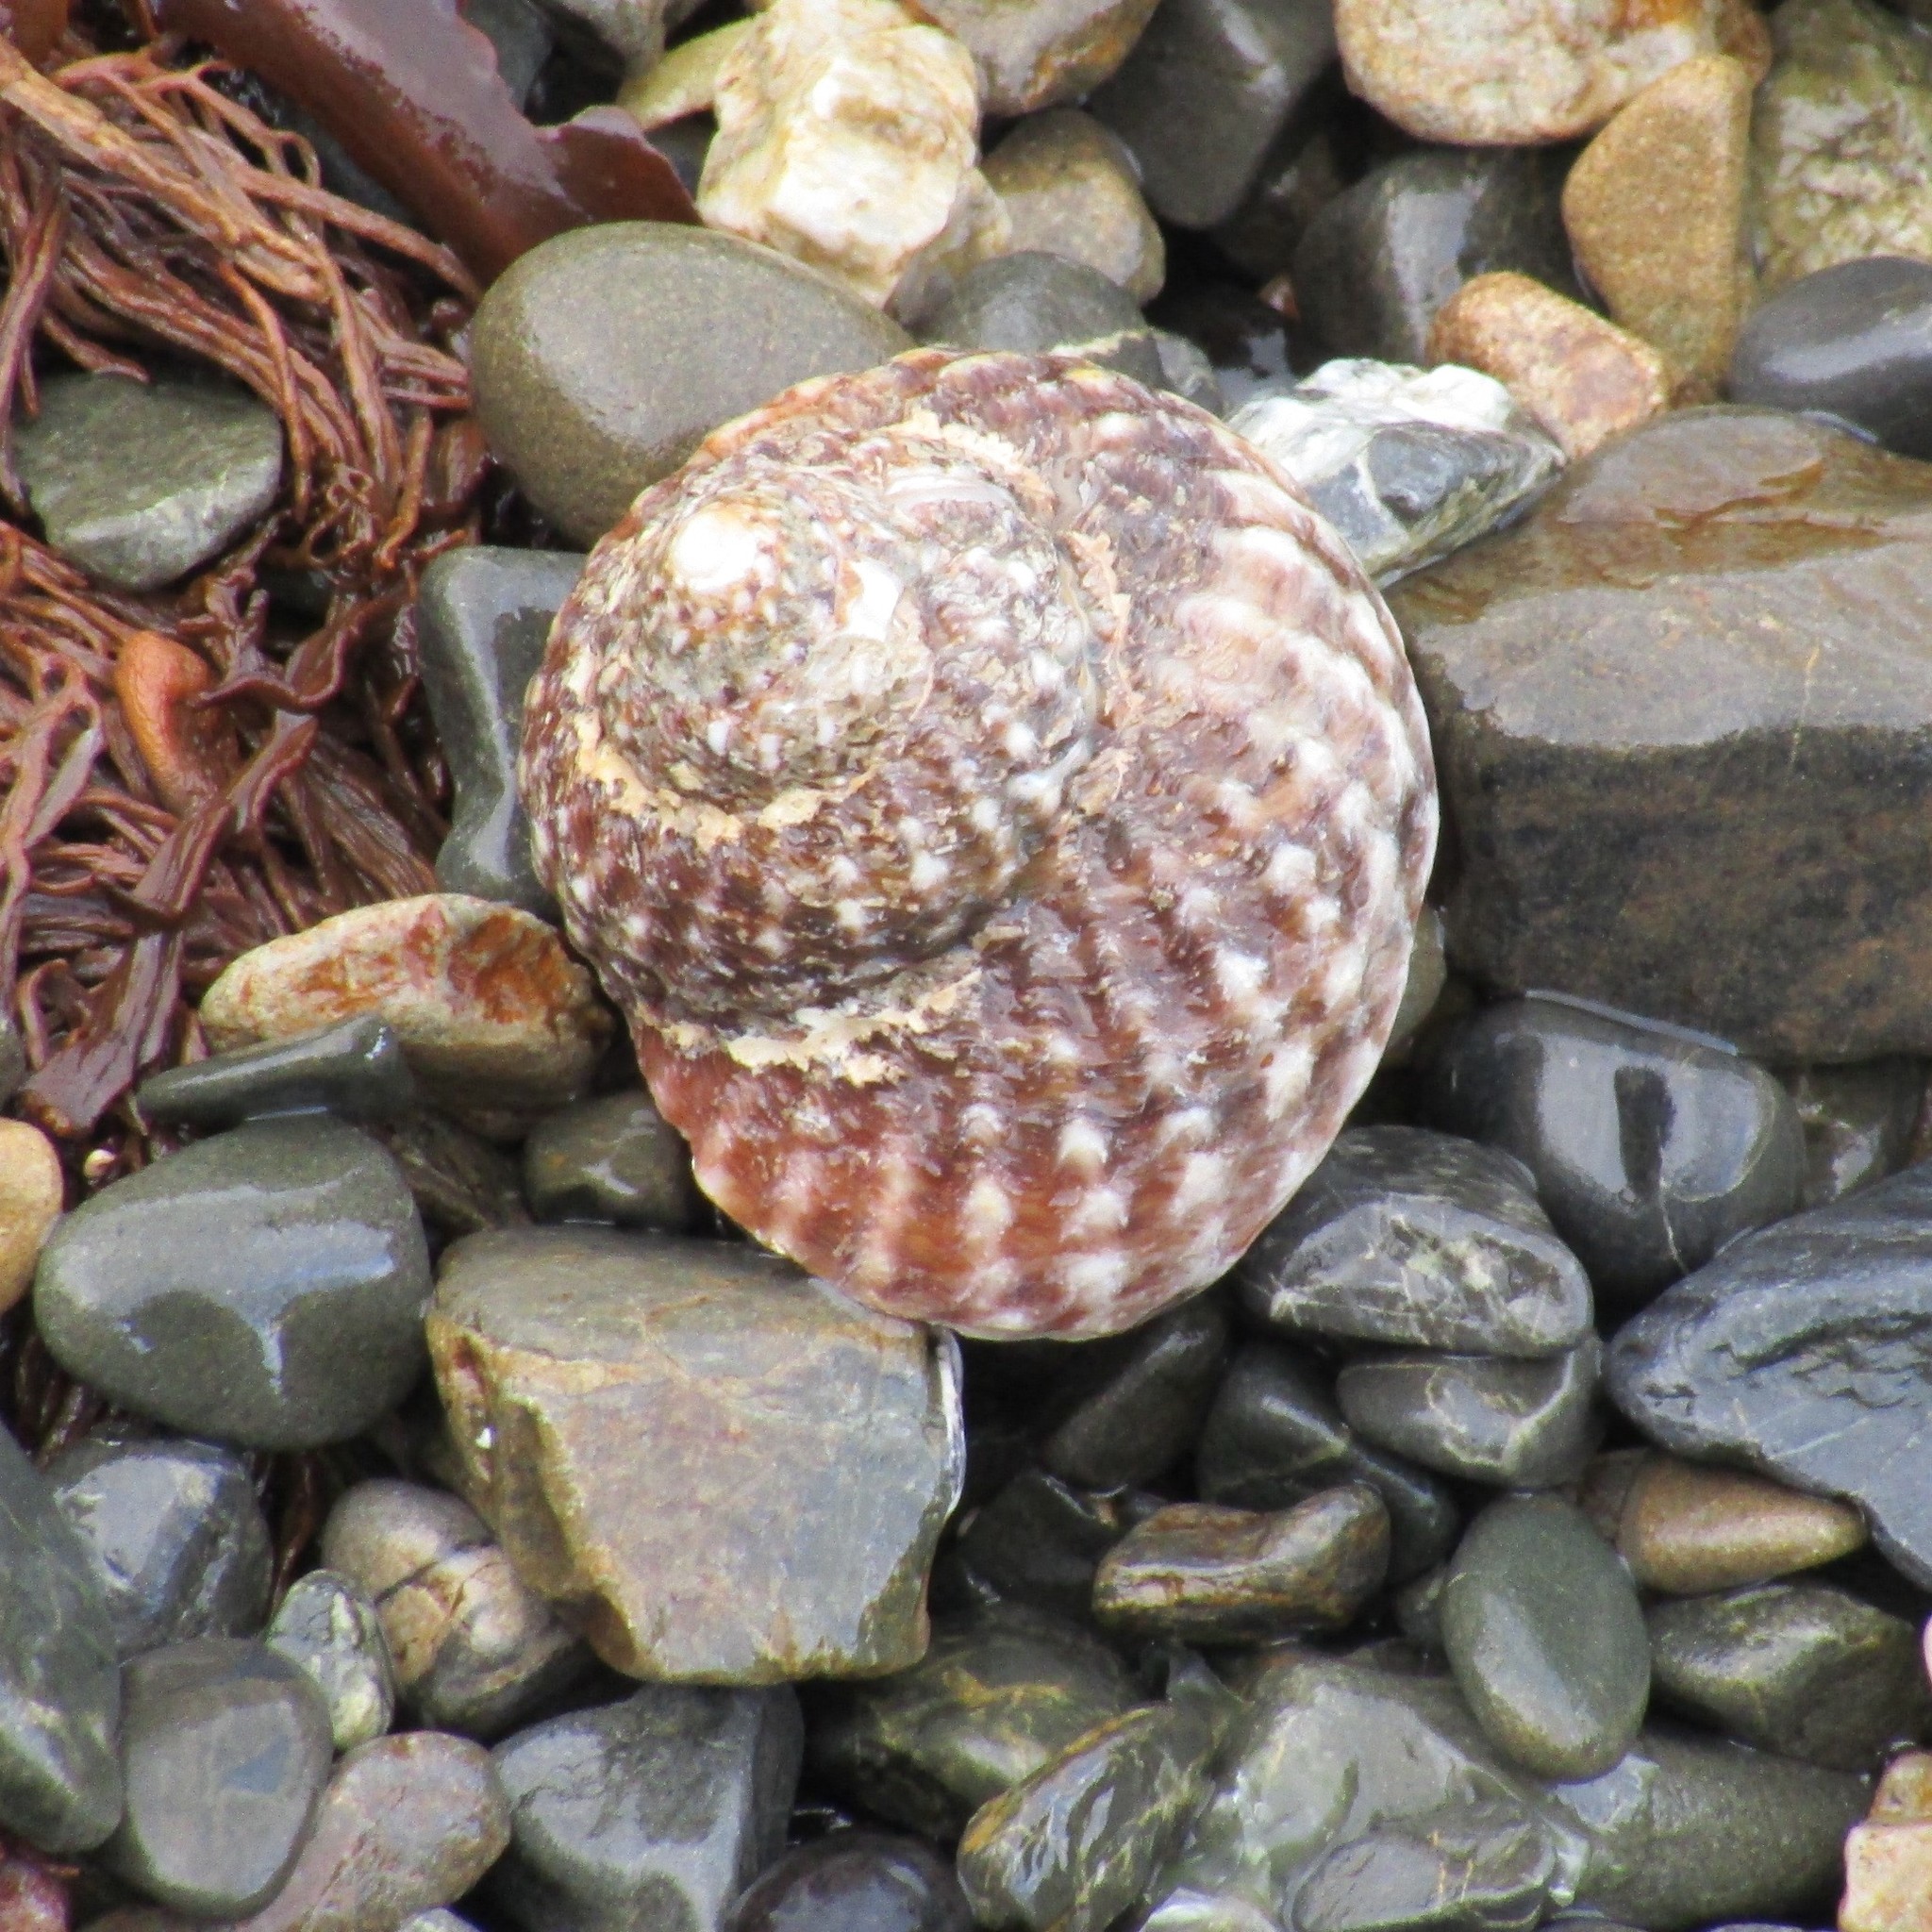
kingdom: Animalia
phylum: Mollusca
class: Gastropoda
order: Trochida
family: Turbinidae
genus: Cookia
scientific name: Cookia sulcata
